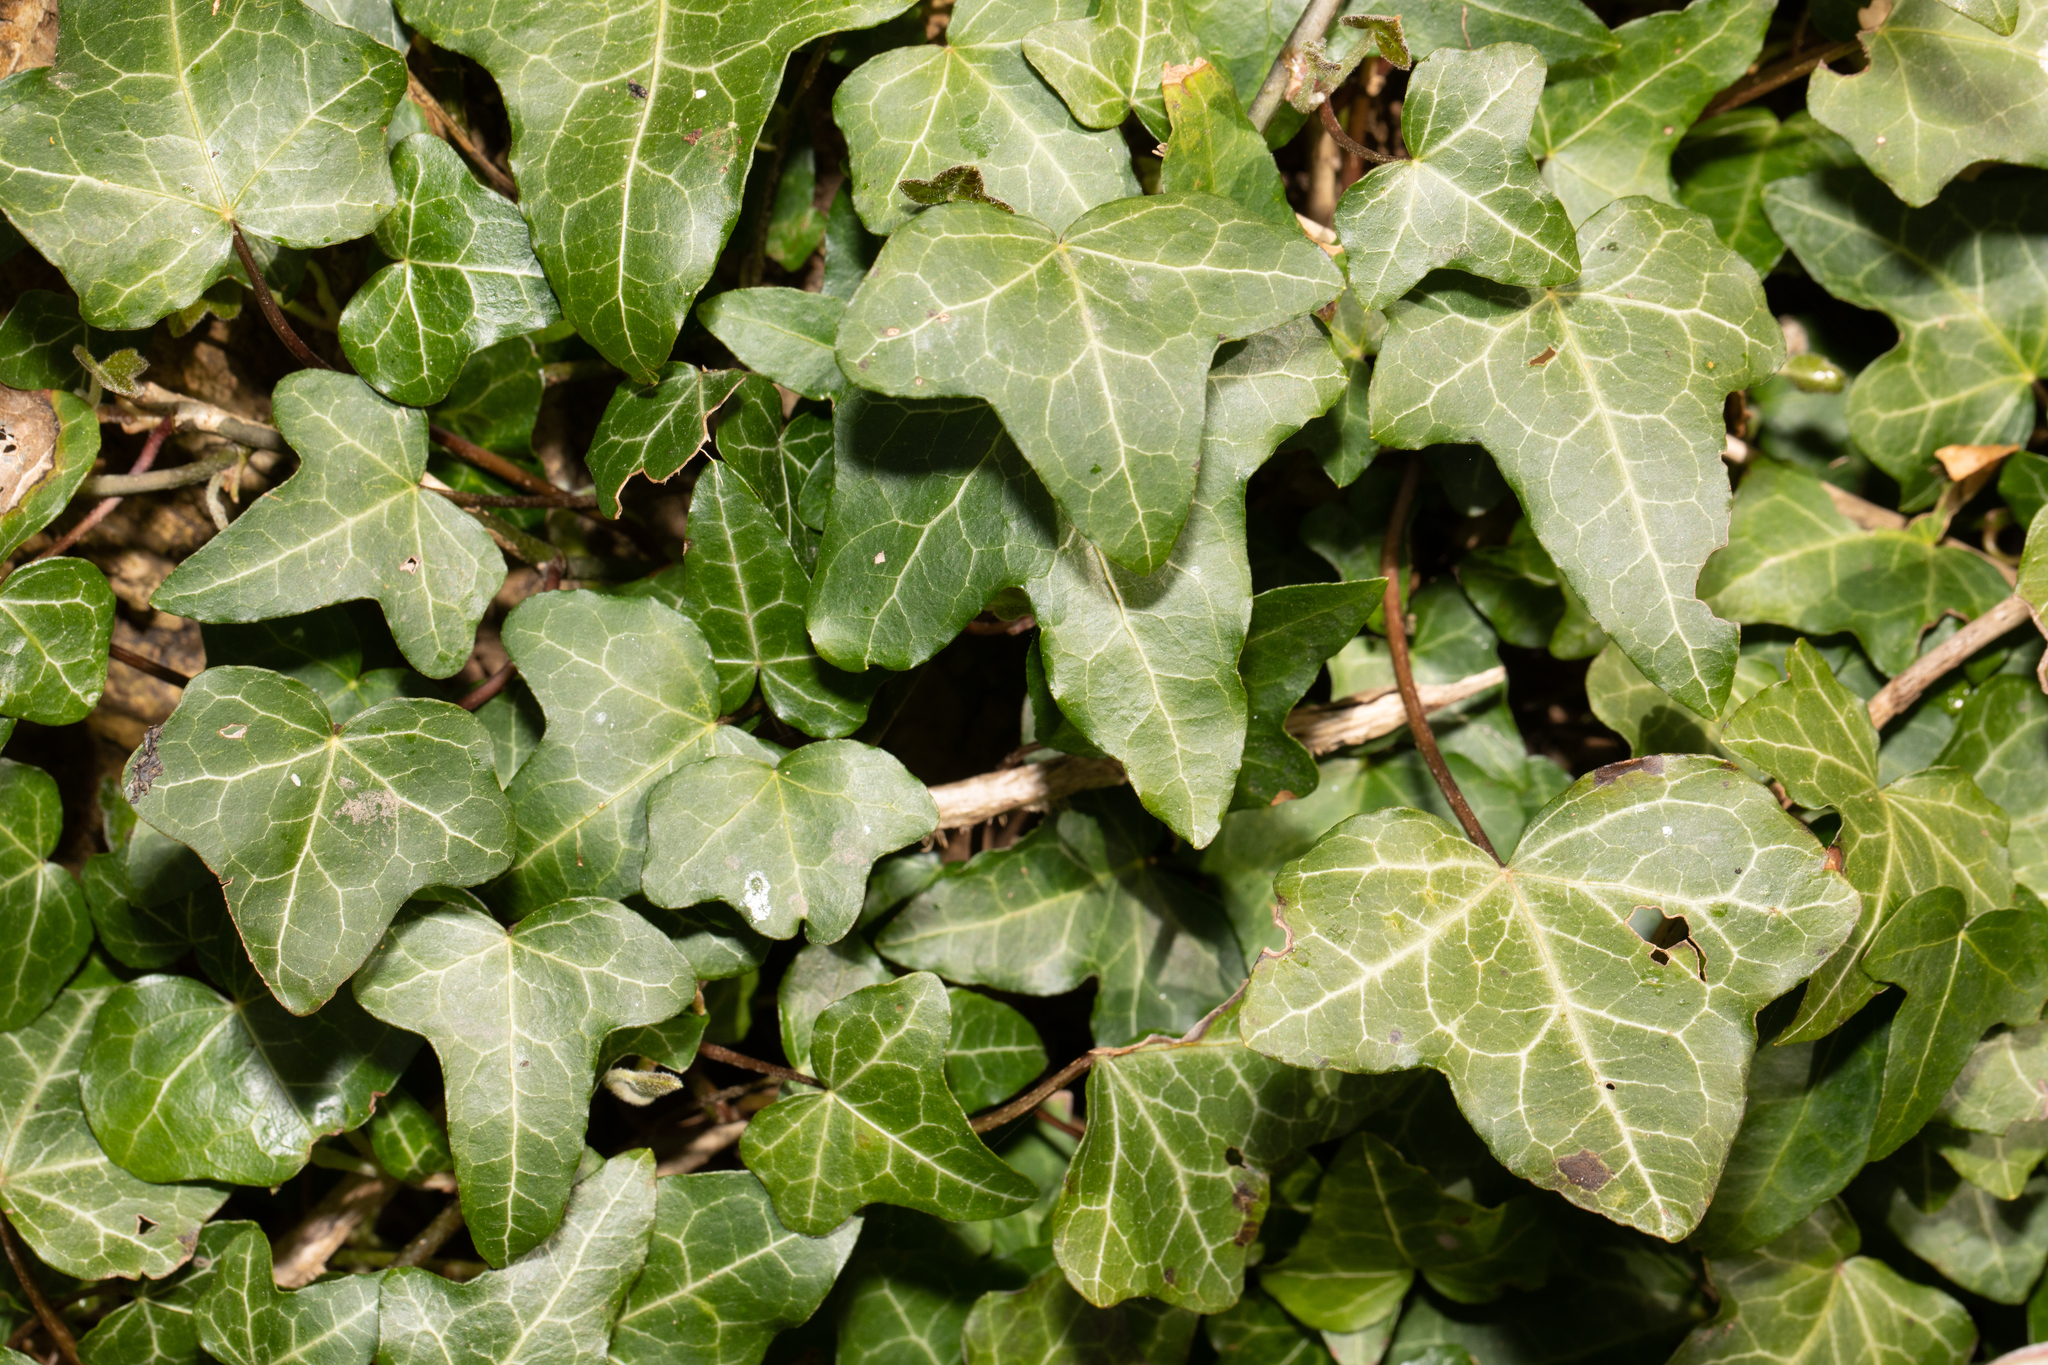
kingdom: Plantae
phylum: Tracheophyta
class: Magnoliopsida
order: Apiales
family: Araliaceae
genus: Hedera
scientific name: Hedera helix
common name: Ivy
